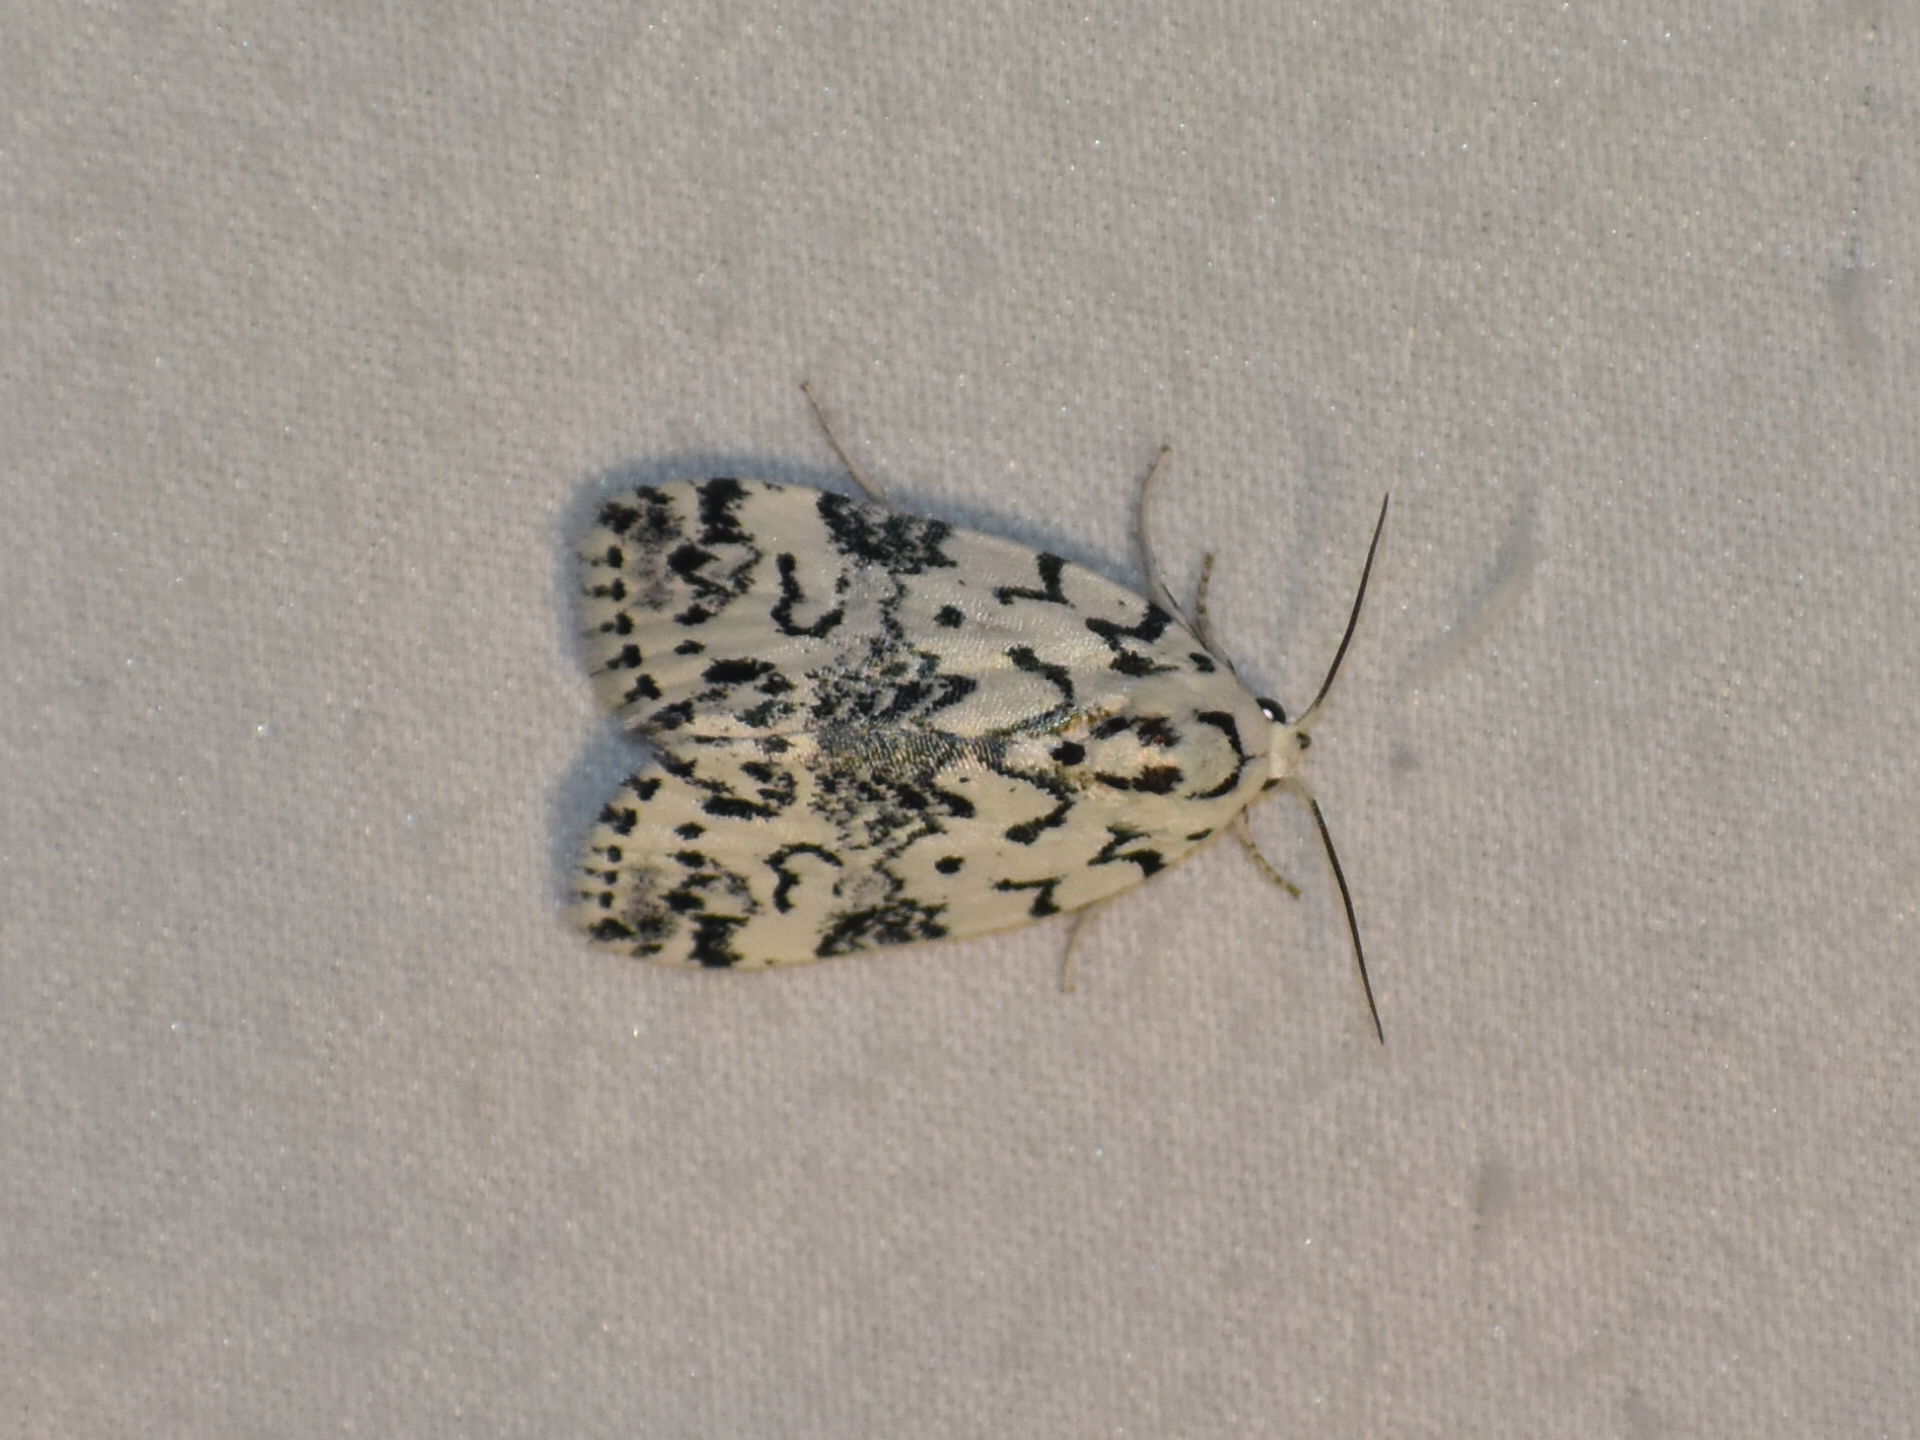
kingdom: Animalia
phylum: Arthropoda
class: Insecta
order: Lepidoptera
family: Noctuidae
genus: Polygrammate
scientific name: Polygrammate hebraeicum
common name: Hebrew moth
